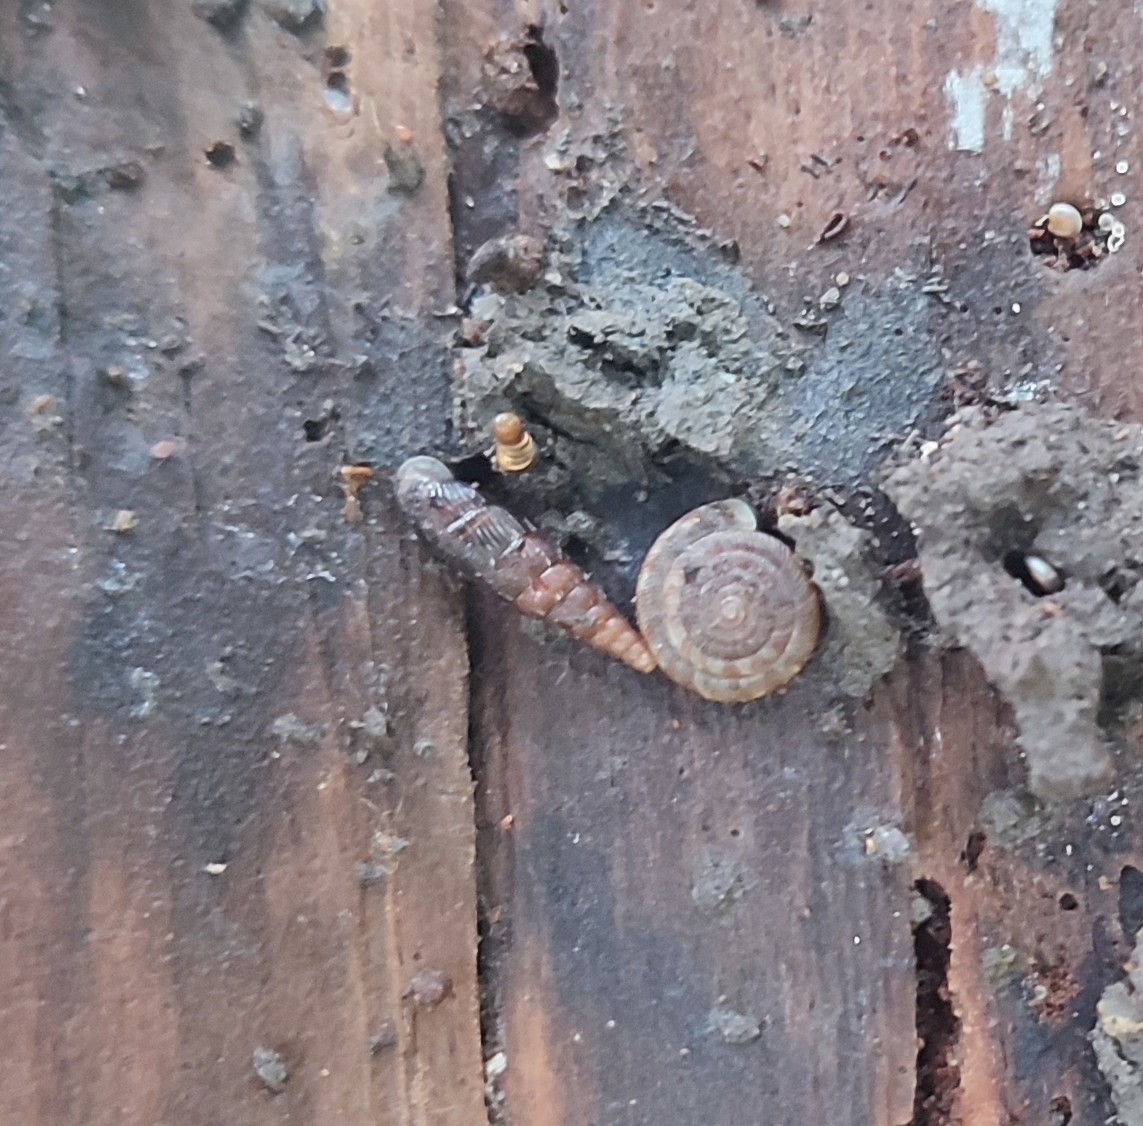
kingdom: Animalia
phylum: Mollusca
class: Gastropoda
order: Stylommatophora
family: Discidae
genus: Discus
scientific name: Discus rotundatus
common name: Rounded snail
